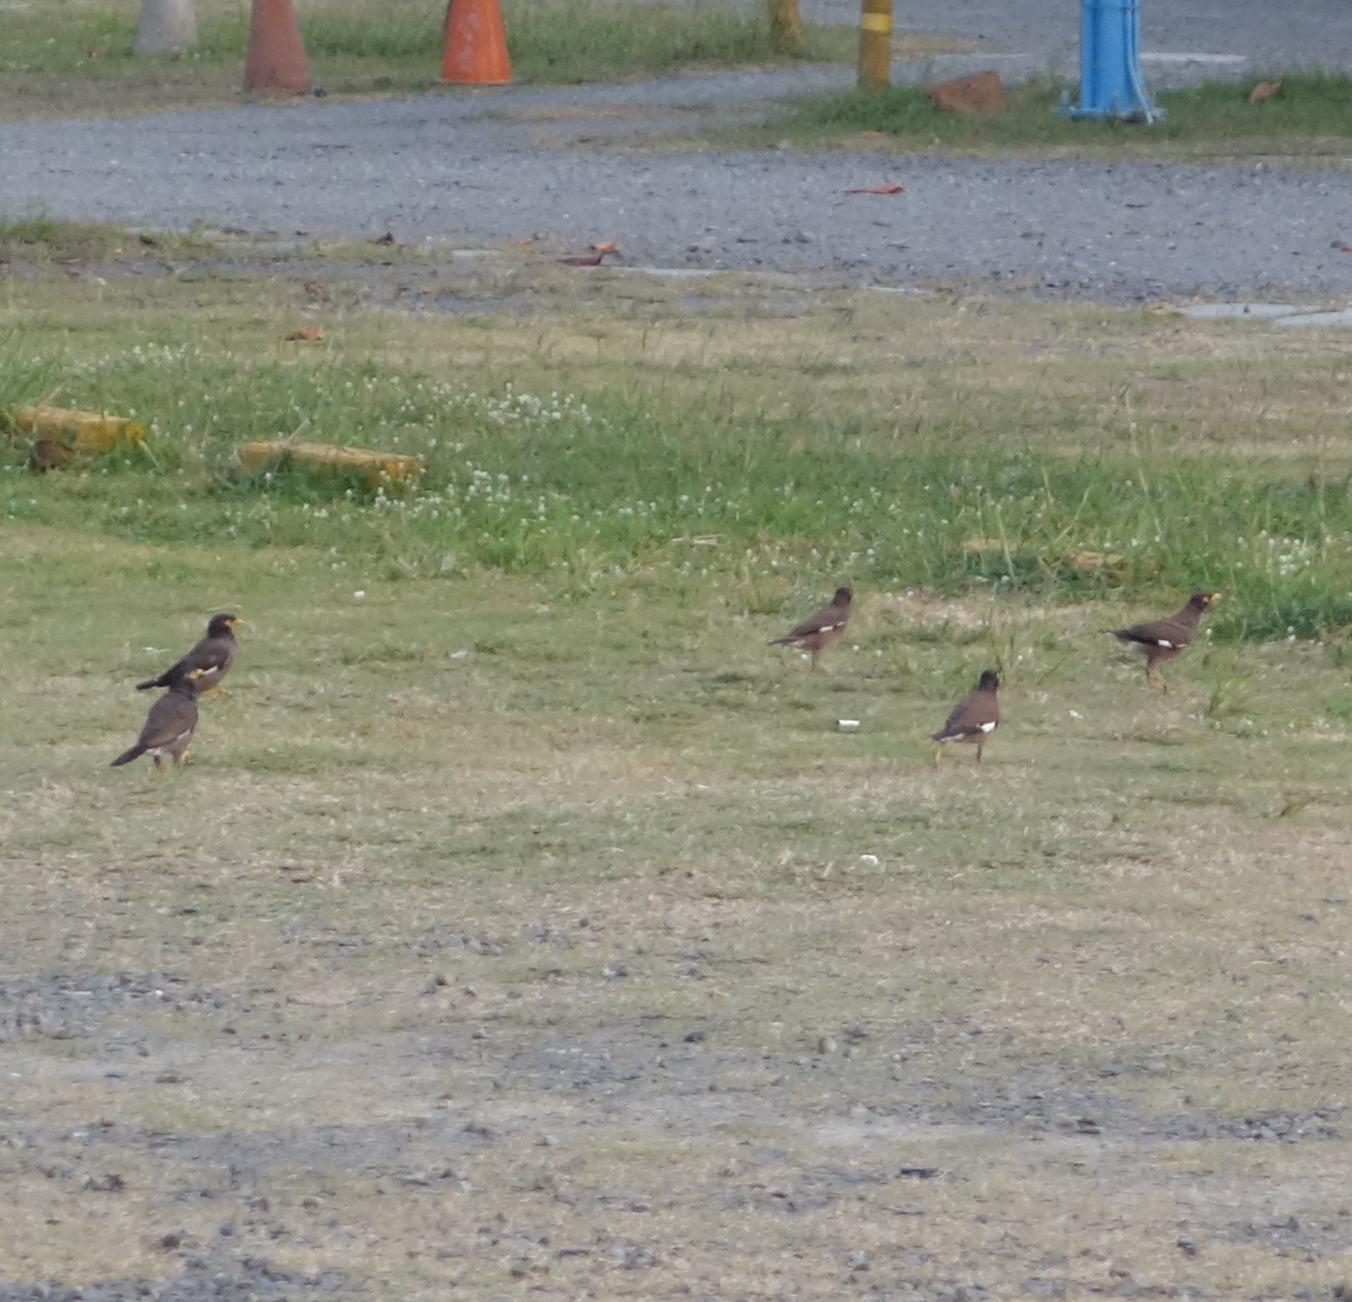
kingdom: Animalia
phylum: Chordata
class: Aves
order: Passeriformes
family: Sturnidae
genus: Acridotheres
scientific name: Acridotheres tristis
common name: Common myna
